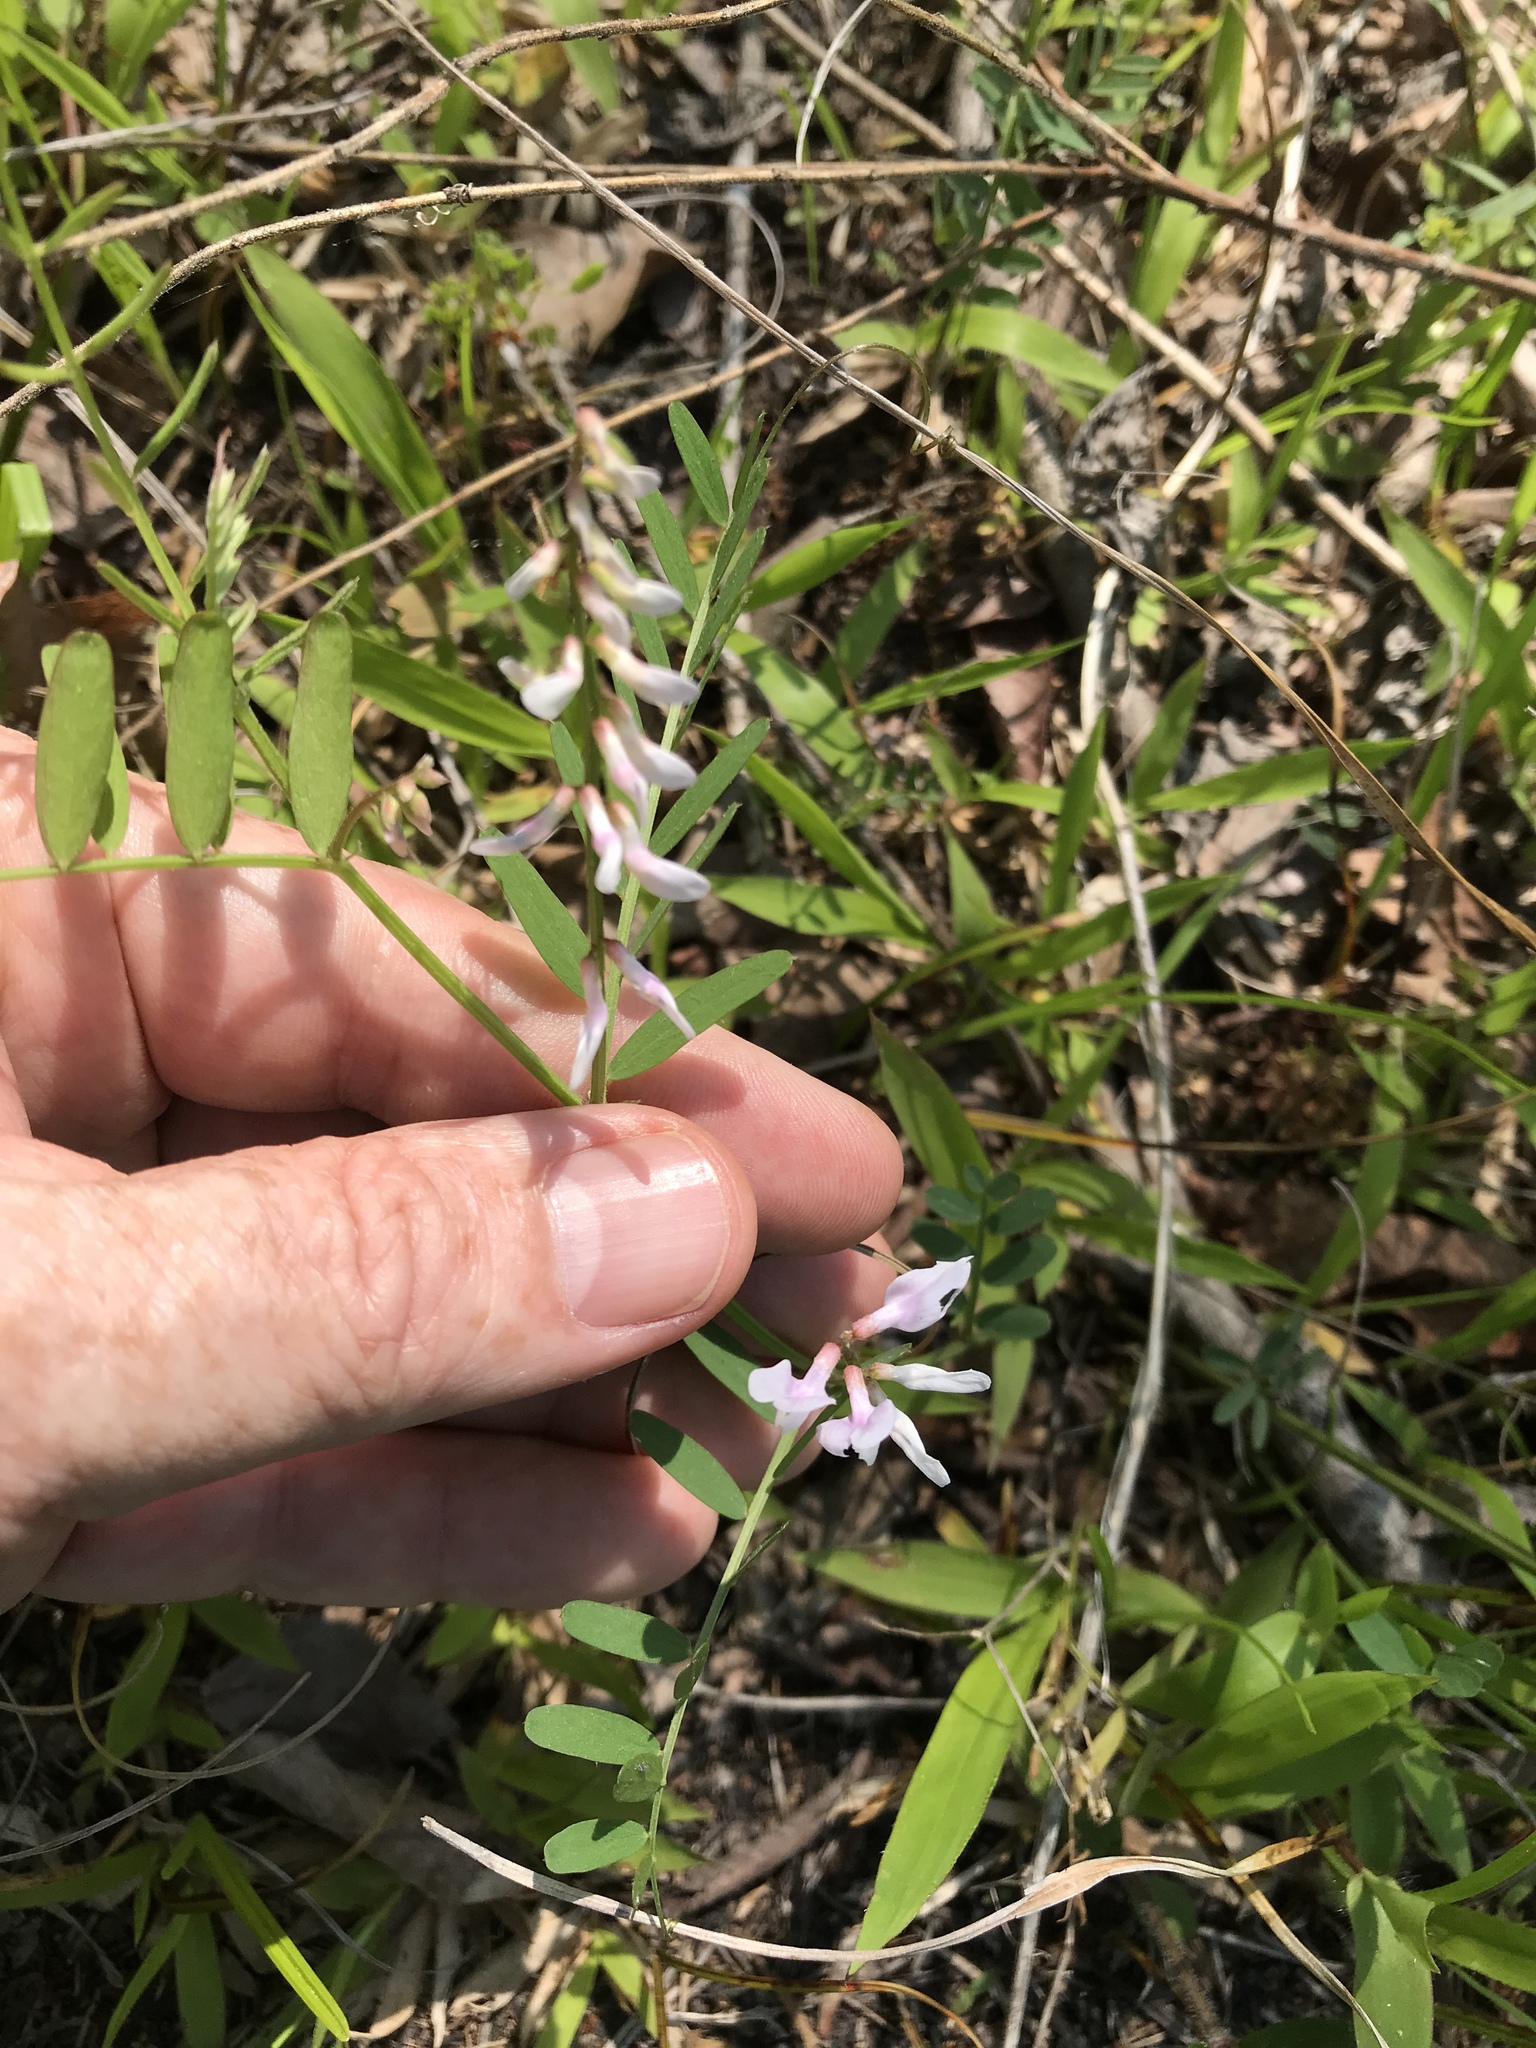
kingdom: Plantae
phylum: Tracheophyta
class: Magnoliopsida
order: Fabales
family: Fabaceae
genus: Vicia
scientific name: Vicia caroliniana
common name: Carolina vetch
